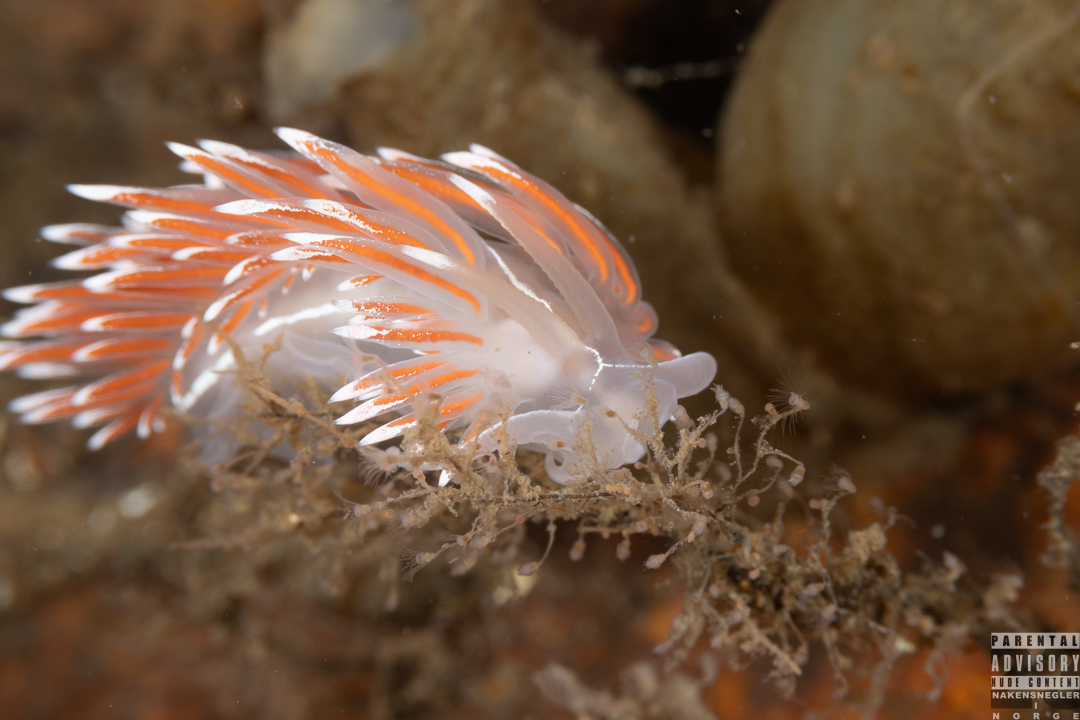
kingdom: Animalia
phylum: Mollusca
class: Gastropoda
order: Nudibranchia
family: Coryphellidae
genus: Coryphella
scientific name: Coryphella lineata
